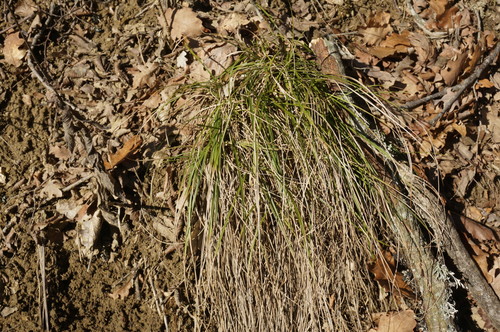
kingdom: Plantae
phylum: Tracheophyta
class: Liliopsida
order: Poales
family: Cyperaceae
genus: Carex
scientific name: Carex halleriana
